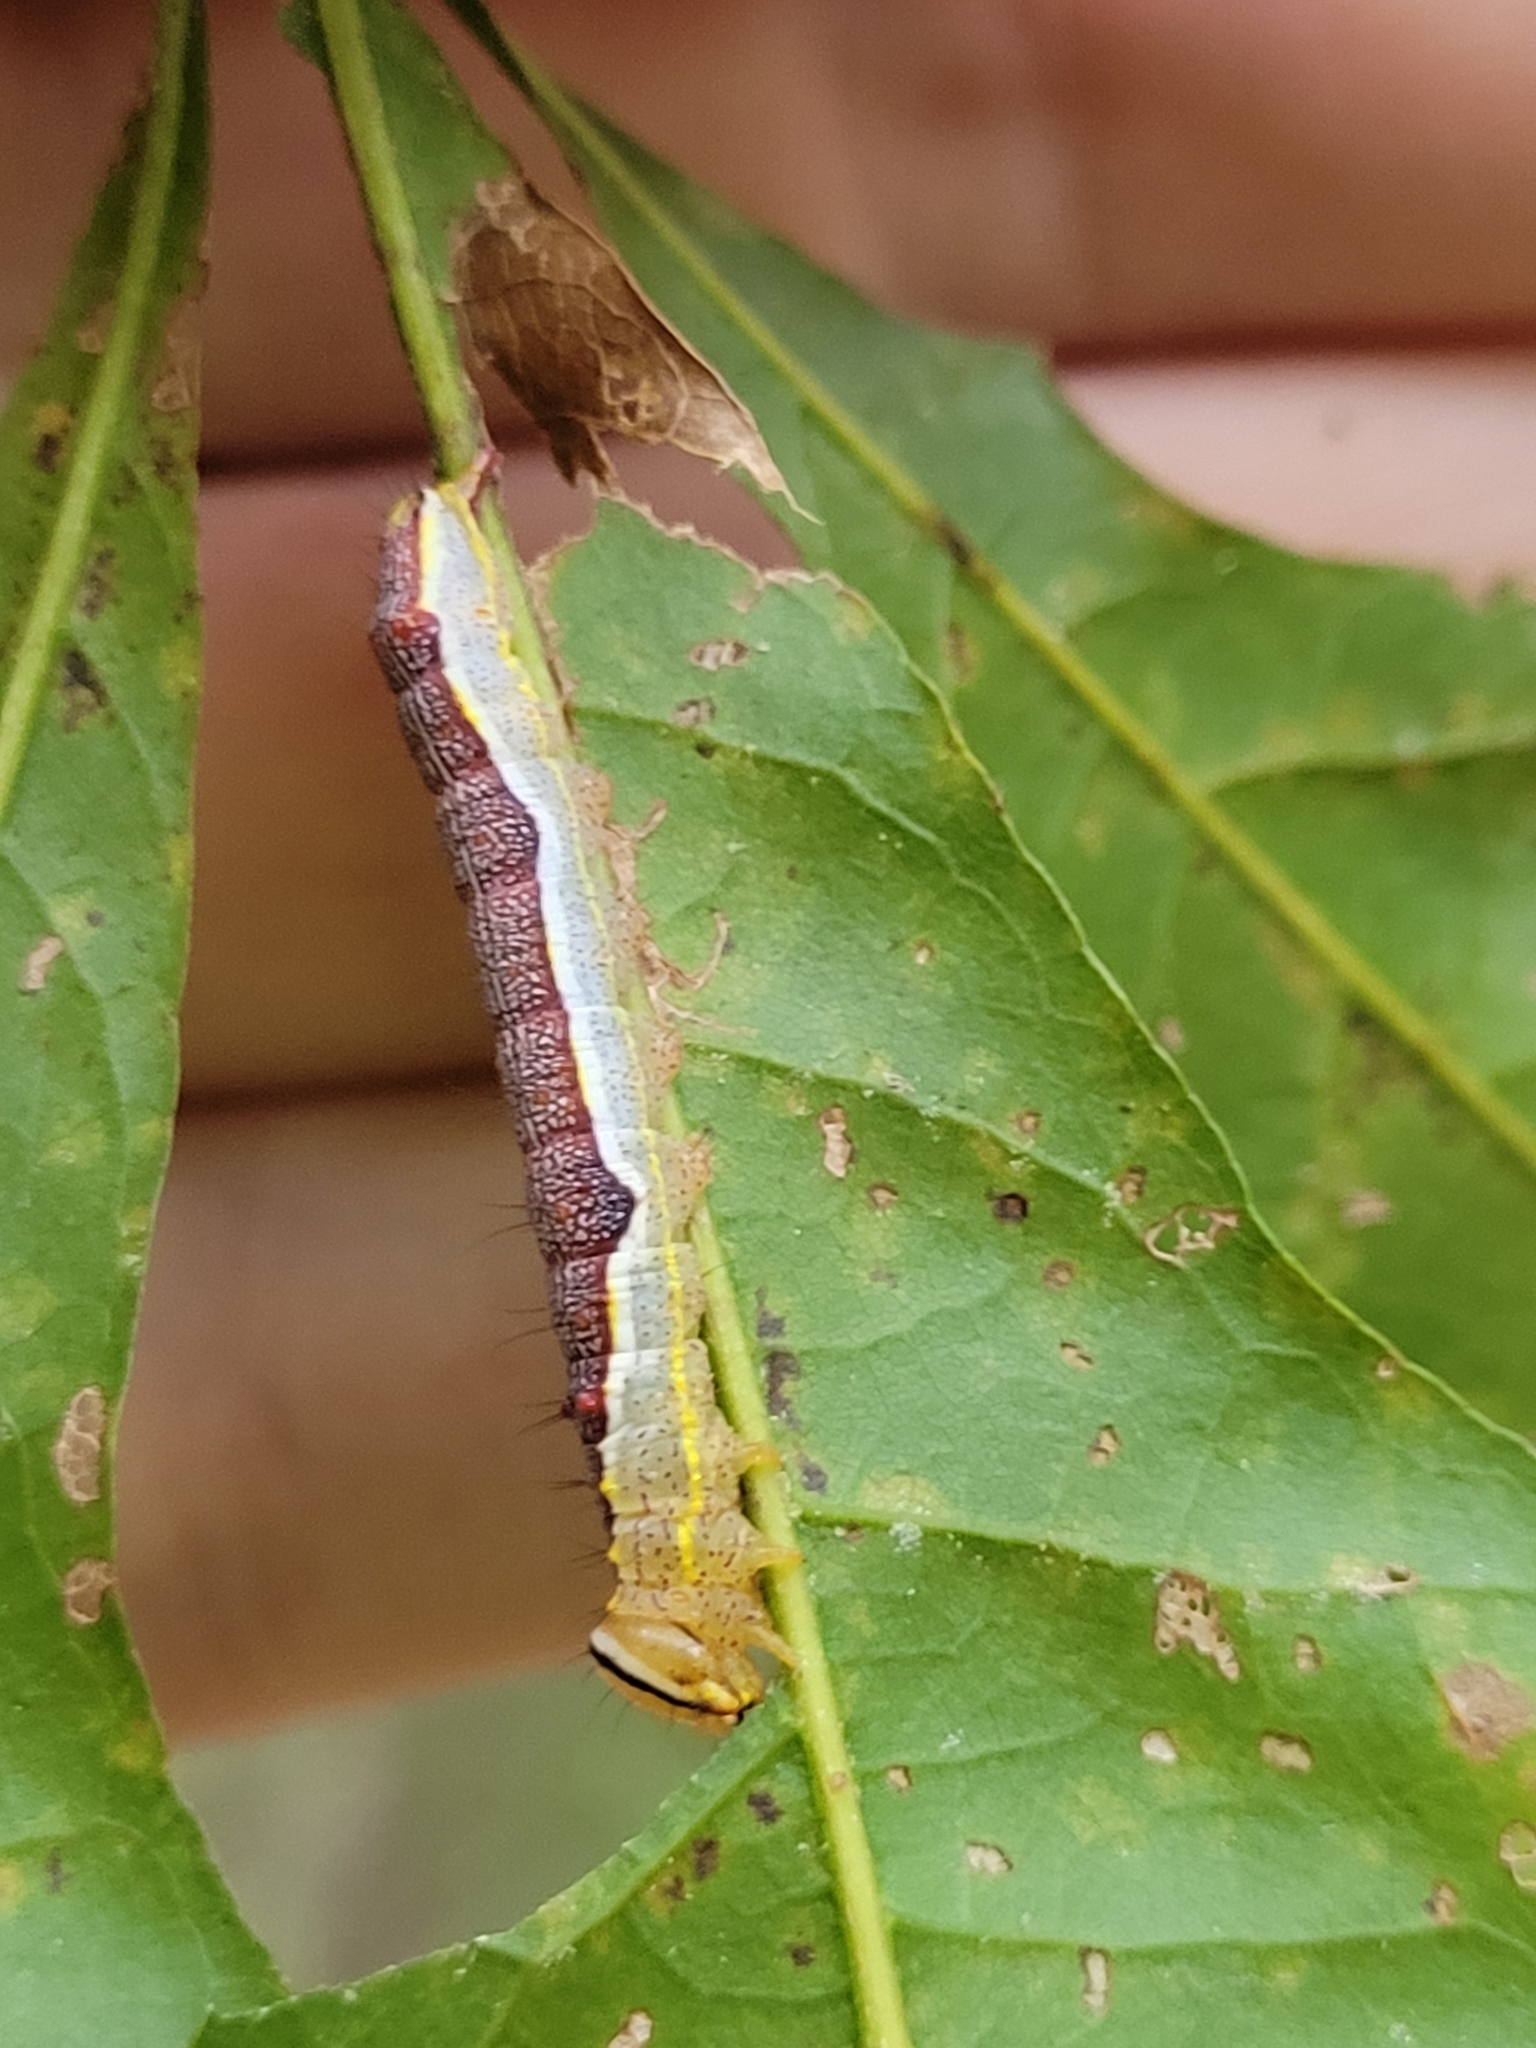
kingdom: Animalia
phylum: Arthropoda
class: Insecta
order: Lepidoptera
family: Notodontidae
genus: Lochmaeus
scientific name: Lochmaeus manteo
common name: Variable oakleaf caterpillar moth
